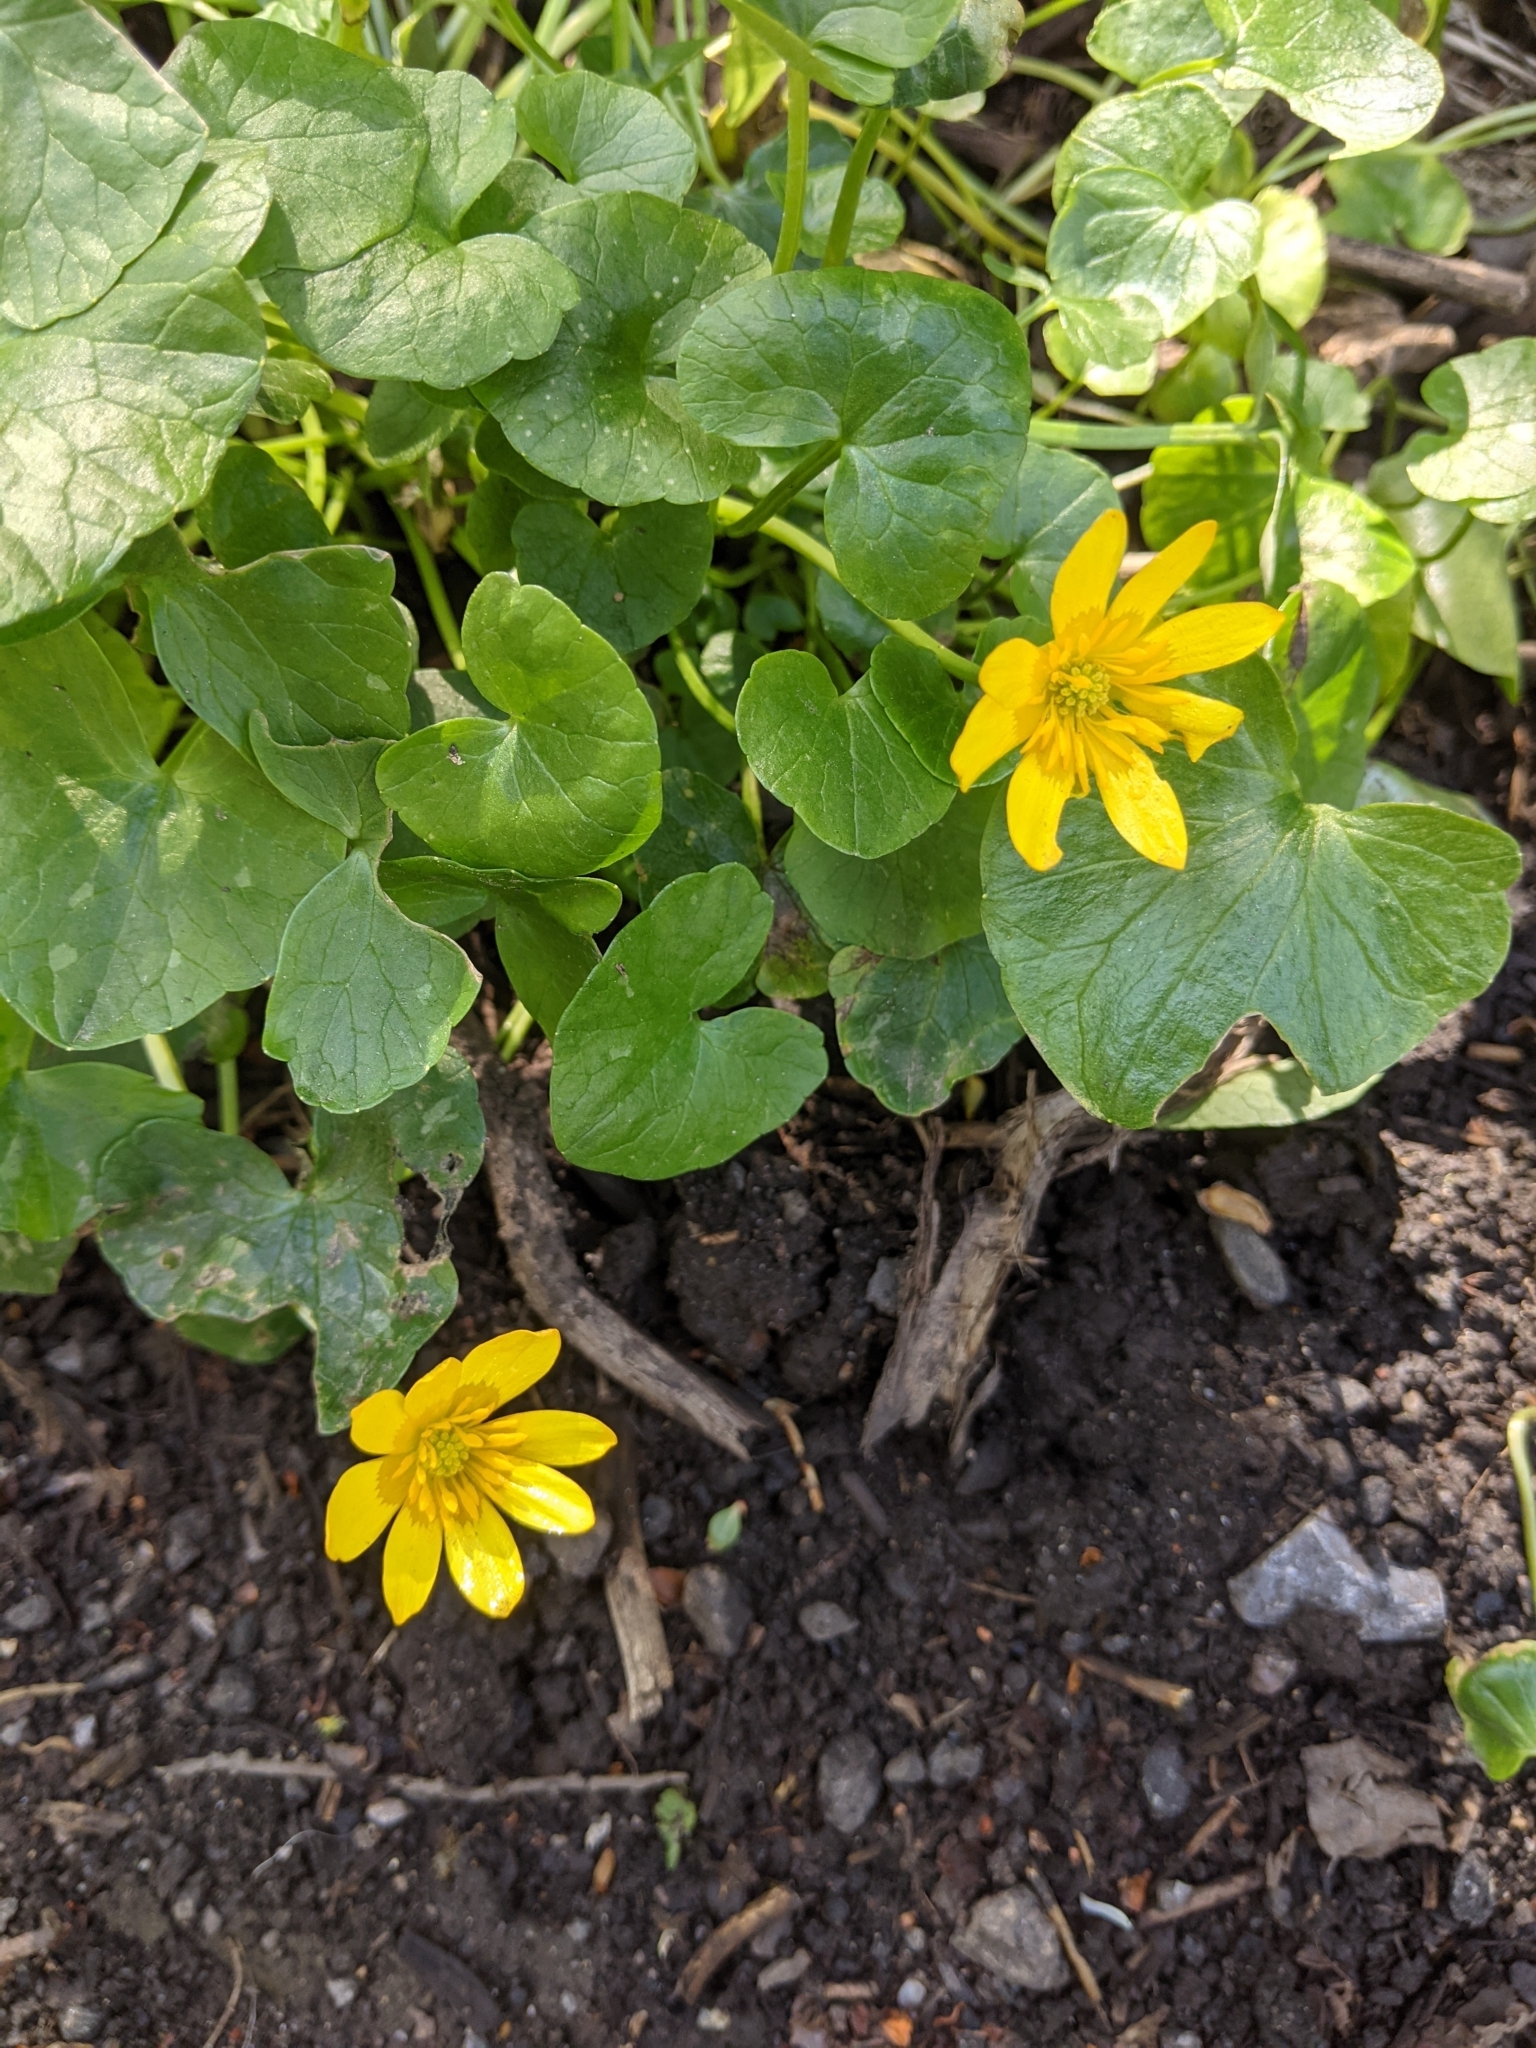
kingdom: Plantae
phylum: Tracheophyta
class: Magnoliopsida
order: Ranunculales
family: Ranunculaceae
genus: Ficaria
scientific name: Ficaria verna
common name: Lesser celandine
